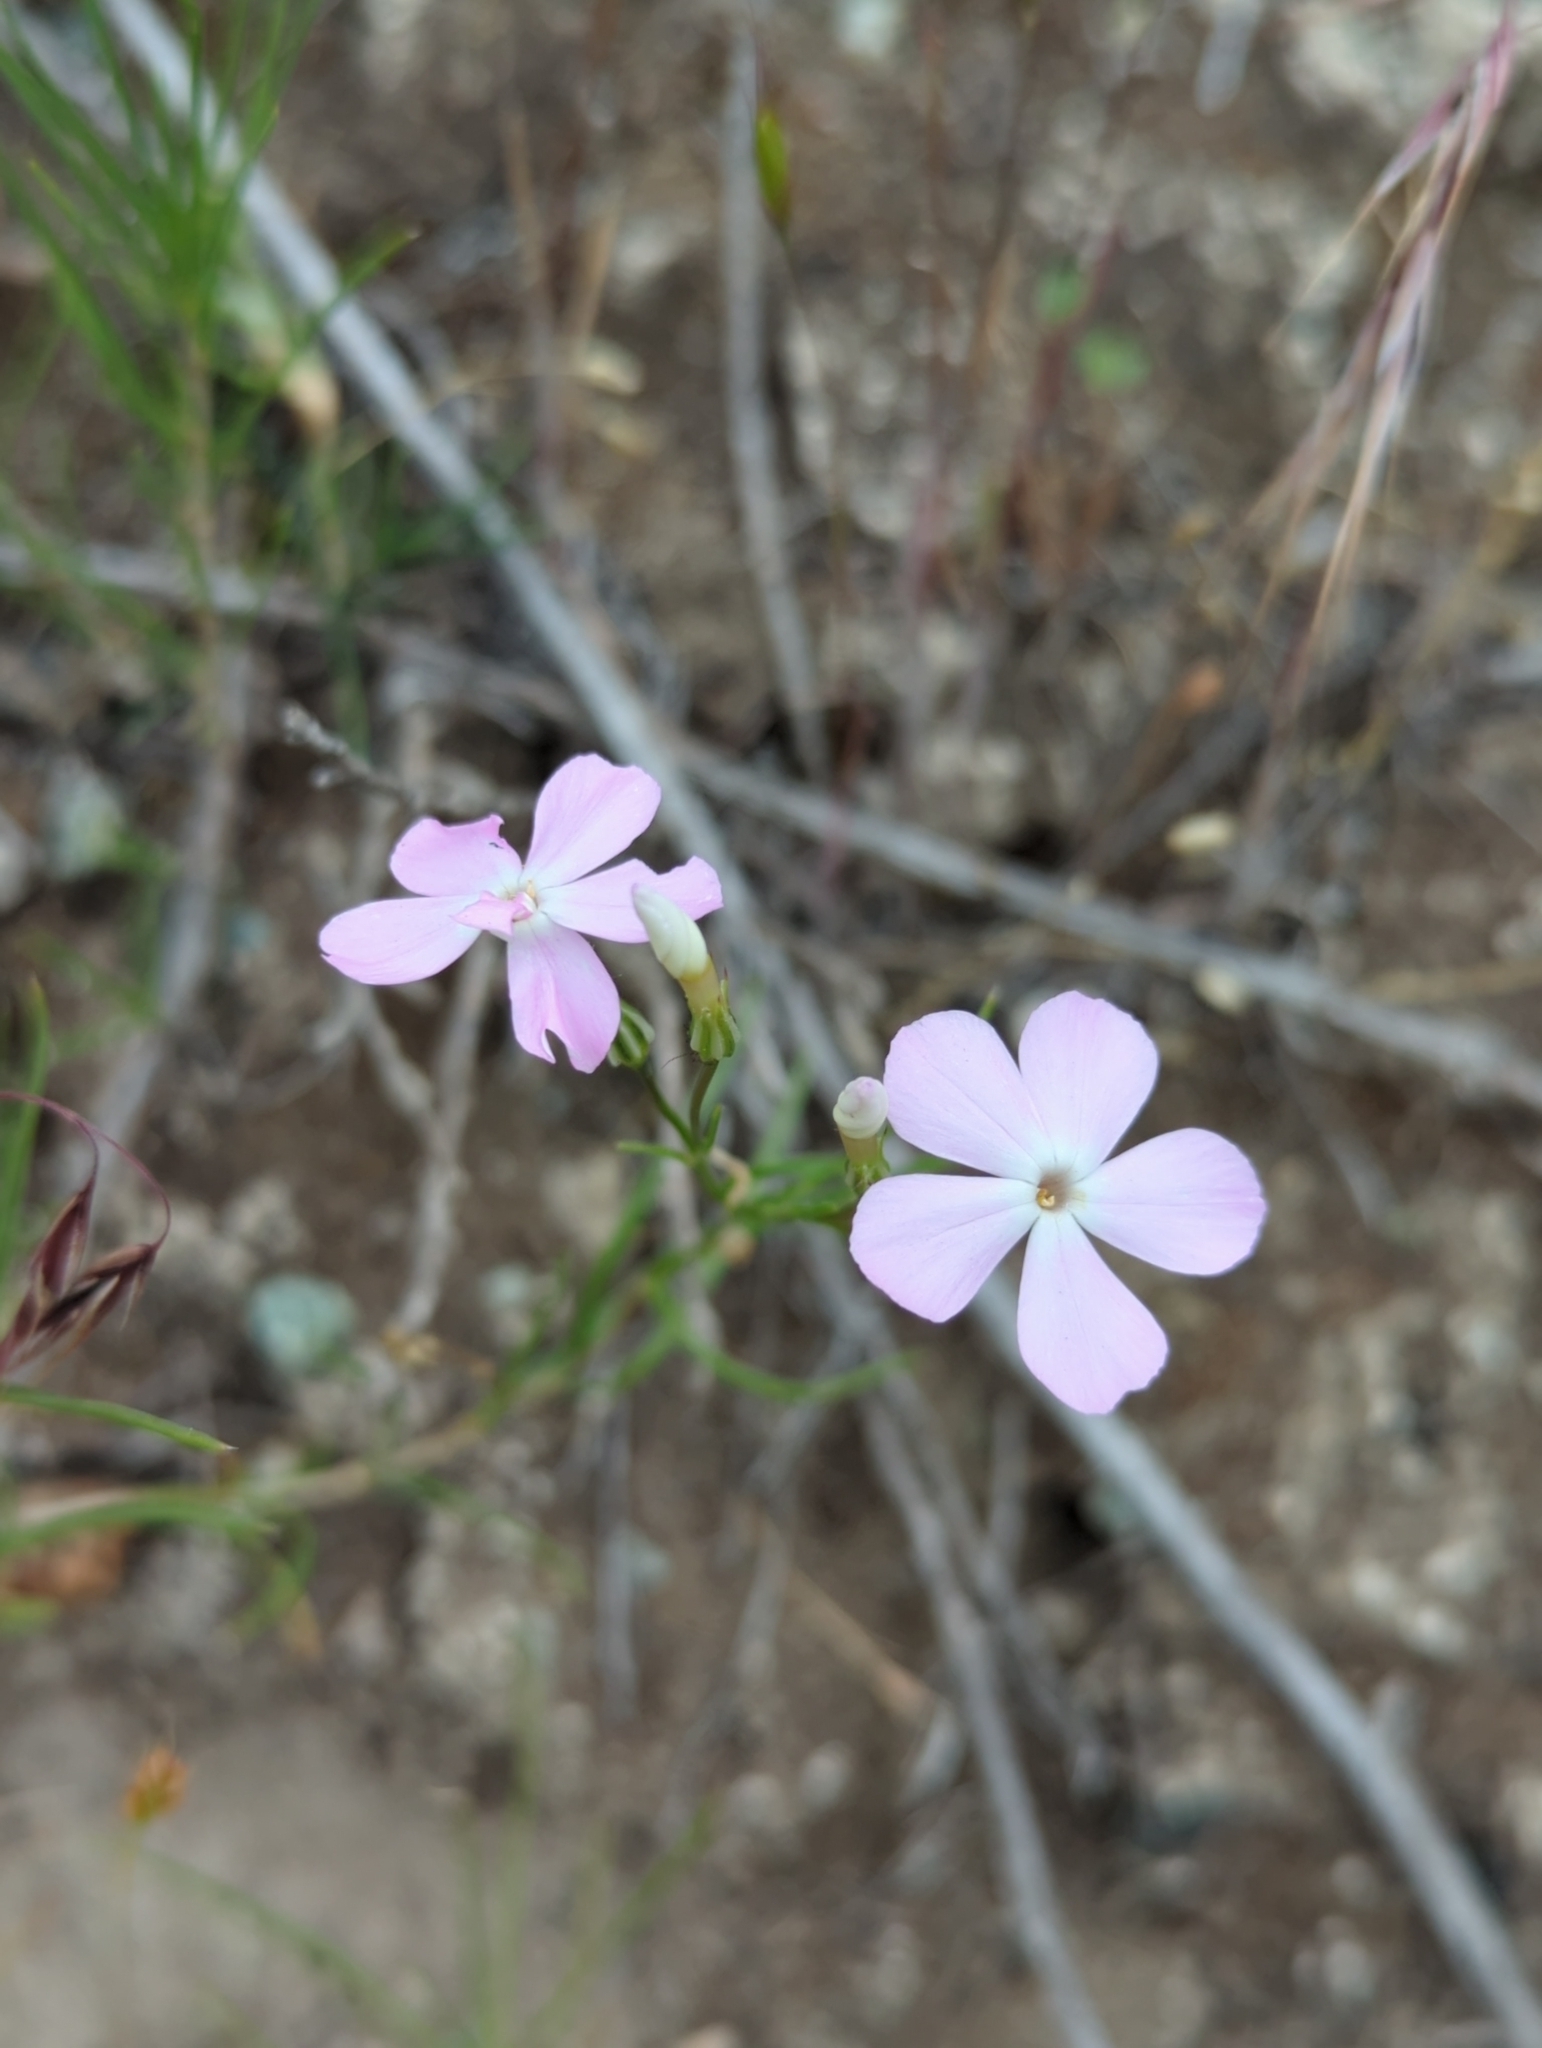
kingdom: Plantae
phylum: Tracheophyta
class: Magnoliopsida
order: Ericales
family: Polemoniaceae
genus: Phlox
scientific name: Phlox longifolia
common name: Longleaf phlox
